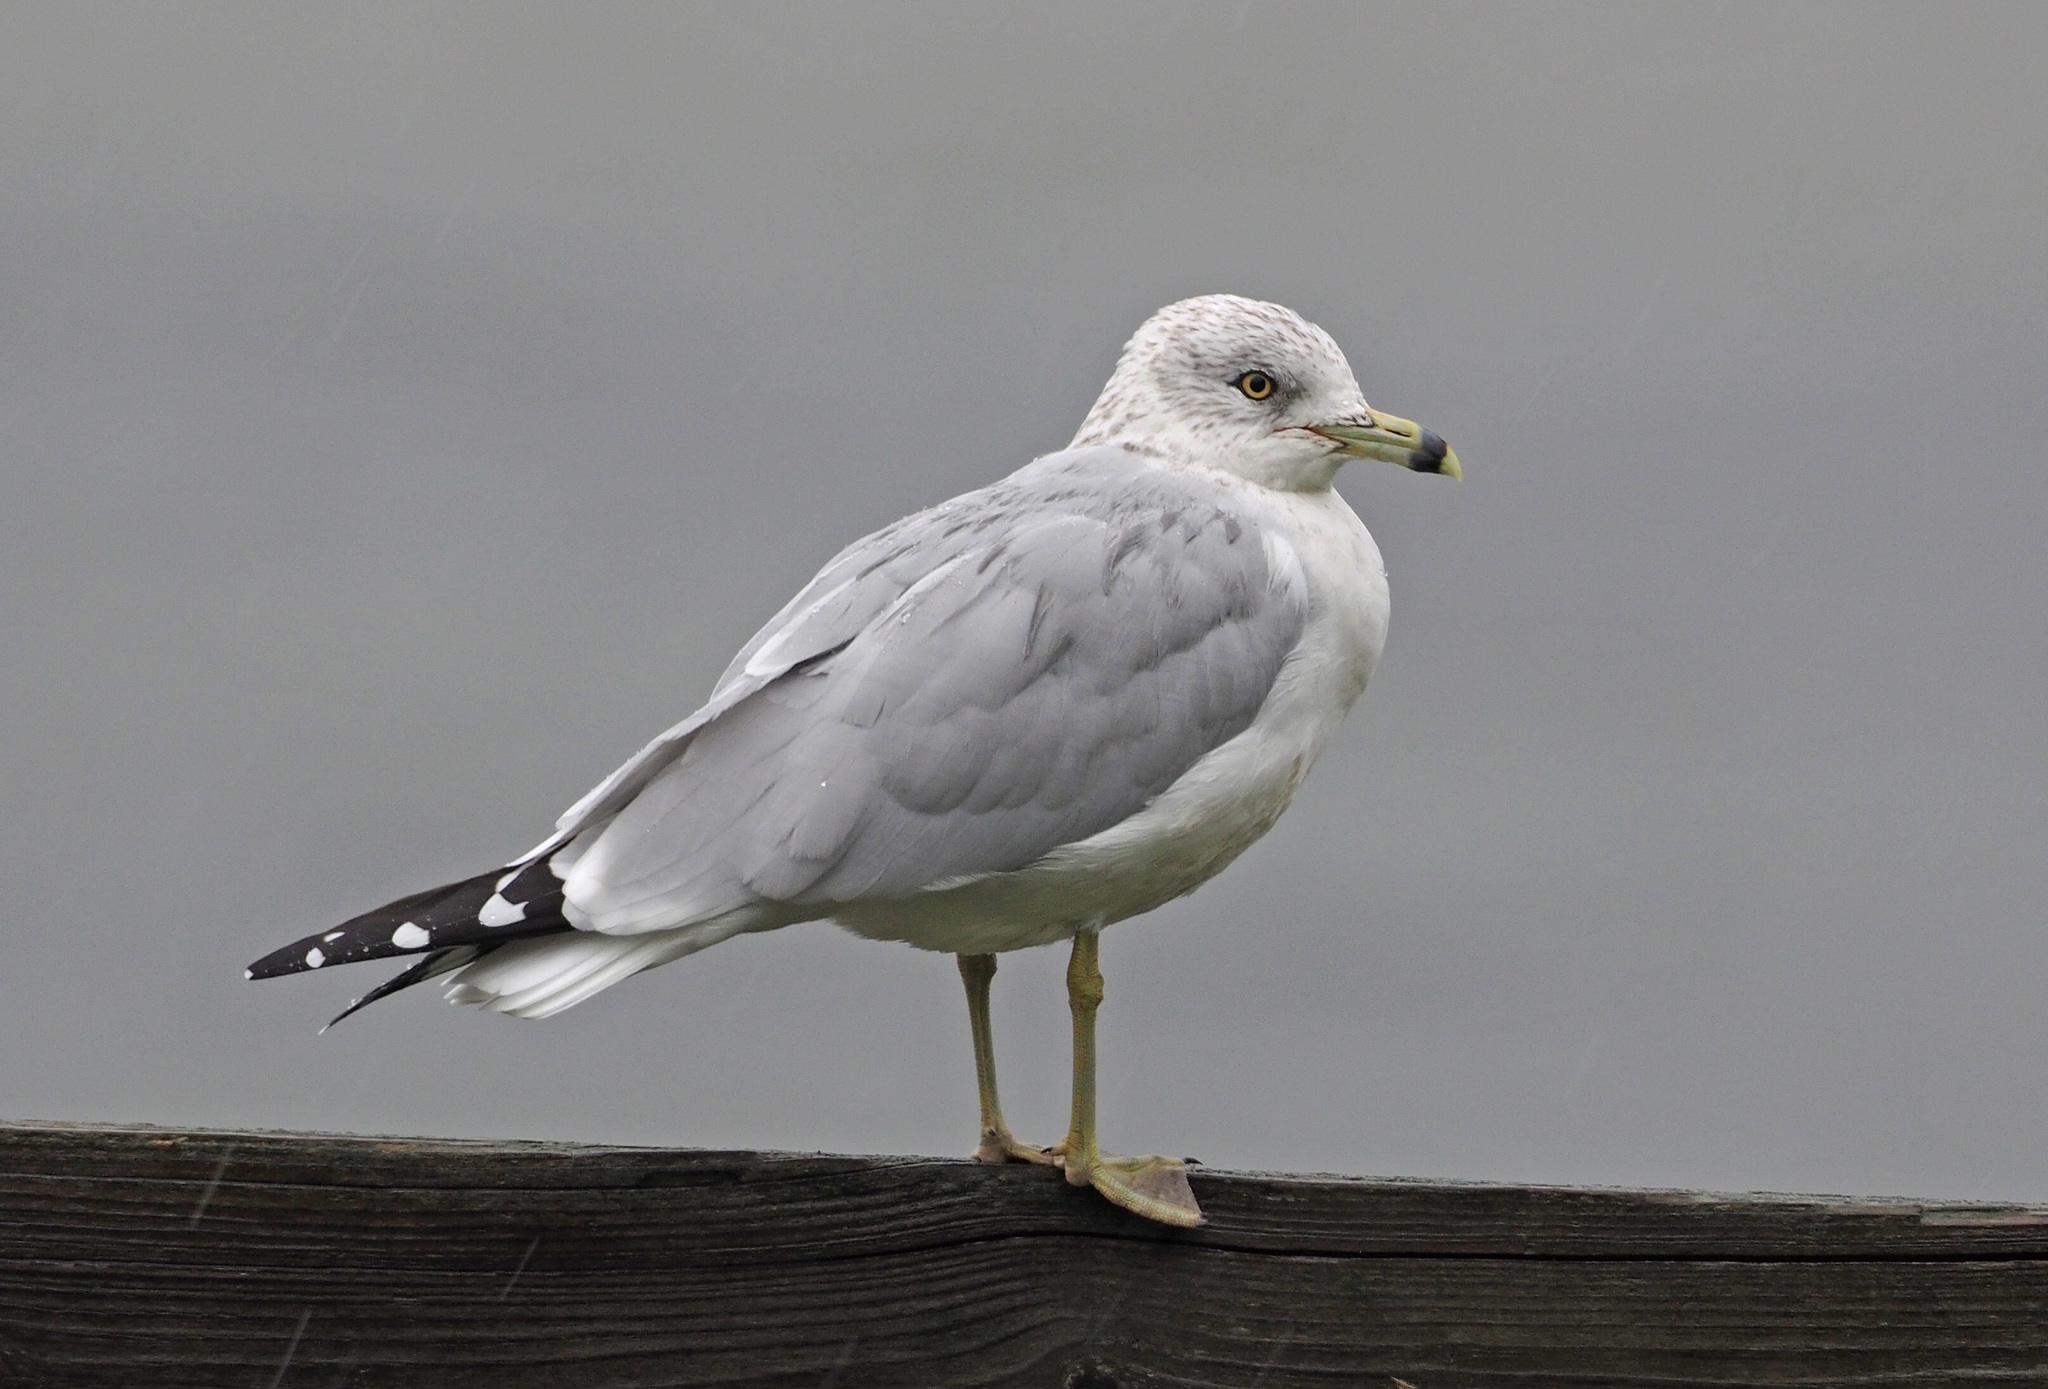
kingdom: Animalia
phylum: Chordata
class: Aves
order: Charadriiformes
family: Laridae
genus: Larus
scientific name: Larus delawarensis
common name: Ring-billed gull
